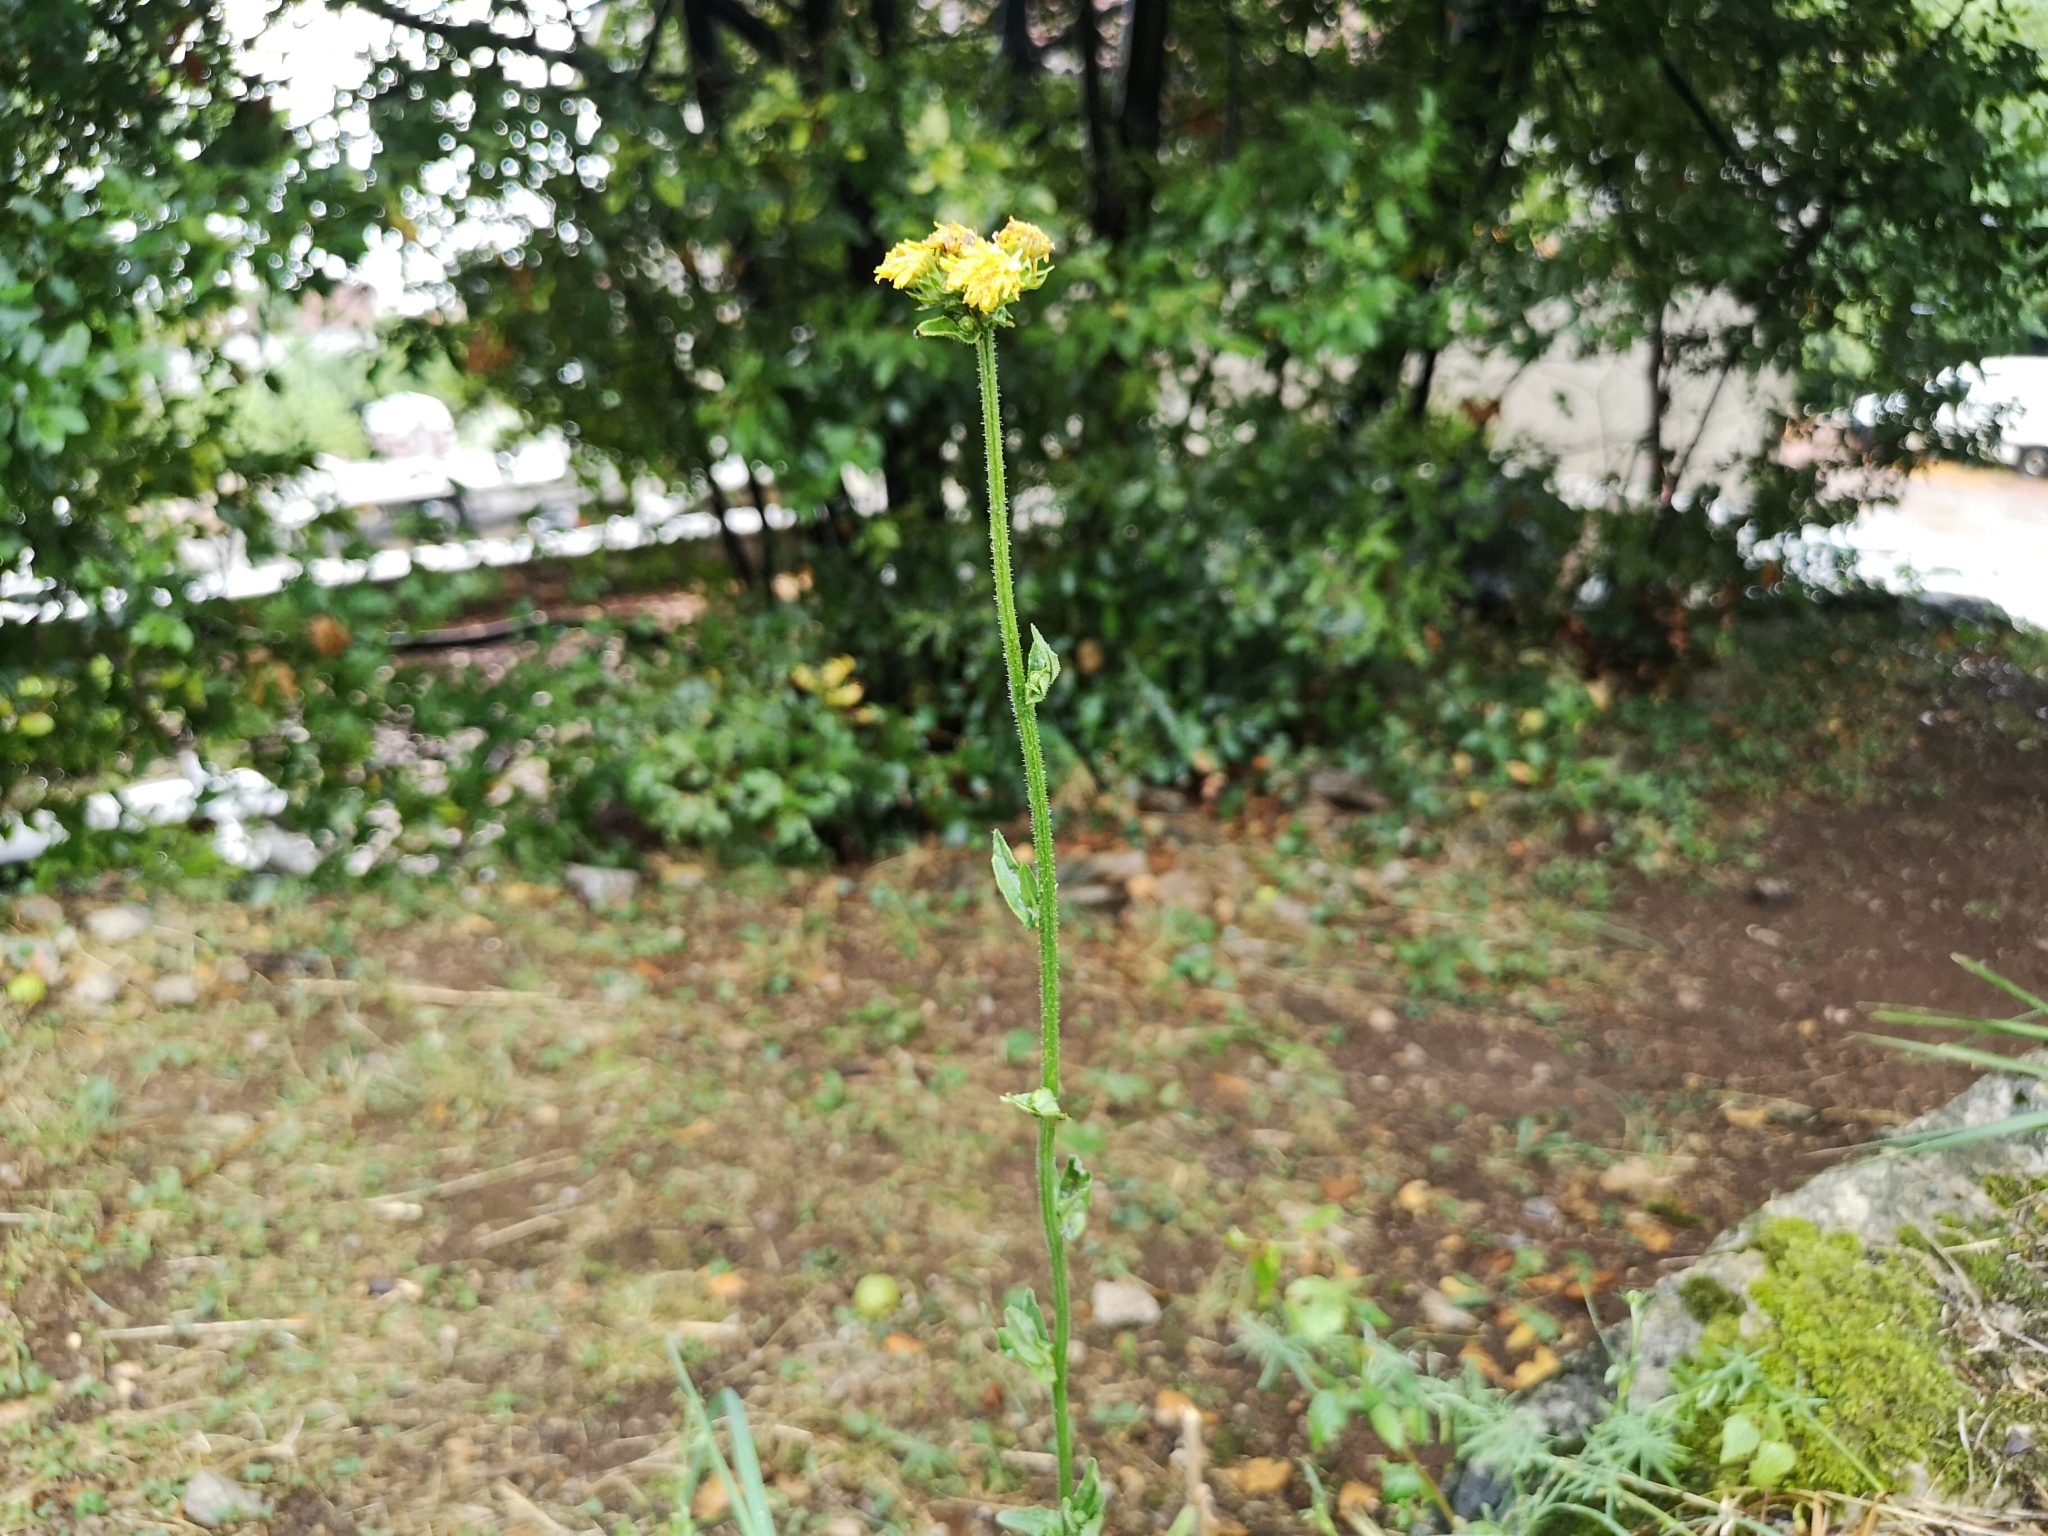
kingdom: Plantae
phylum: Tracheophyta
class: Magnoliopsida
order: Asterales
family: Asteraceae
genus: Picris
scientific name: Picris hieracioides
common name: Hawkweed oxtongue
